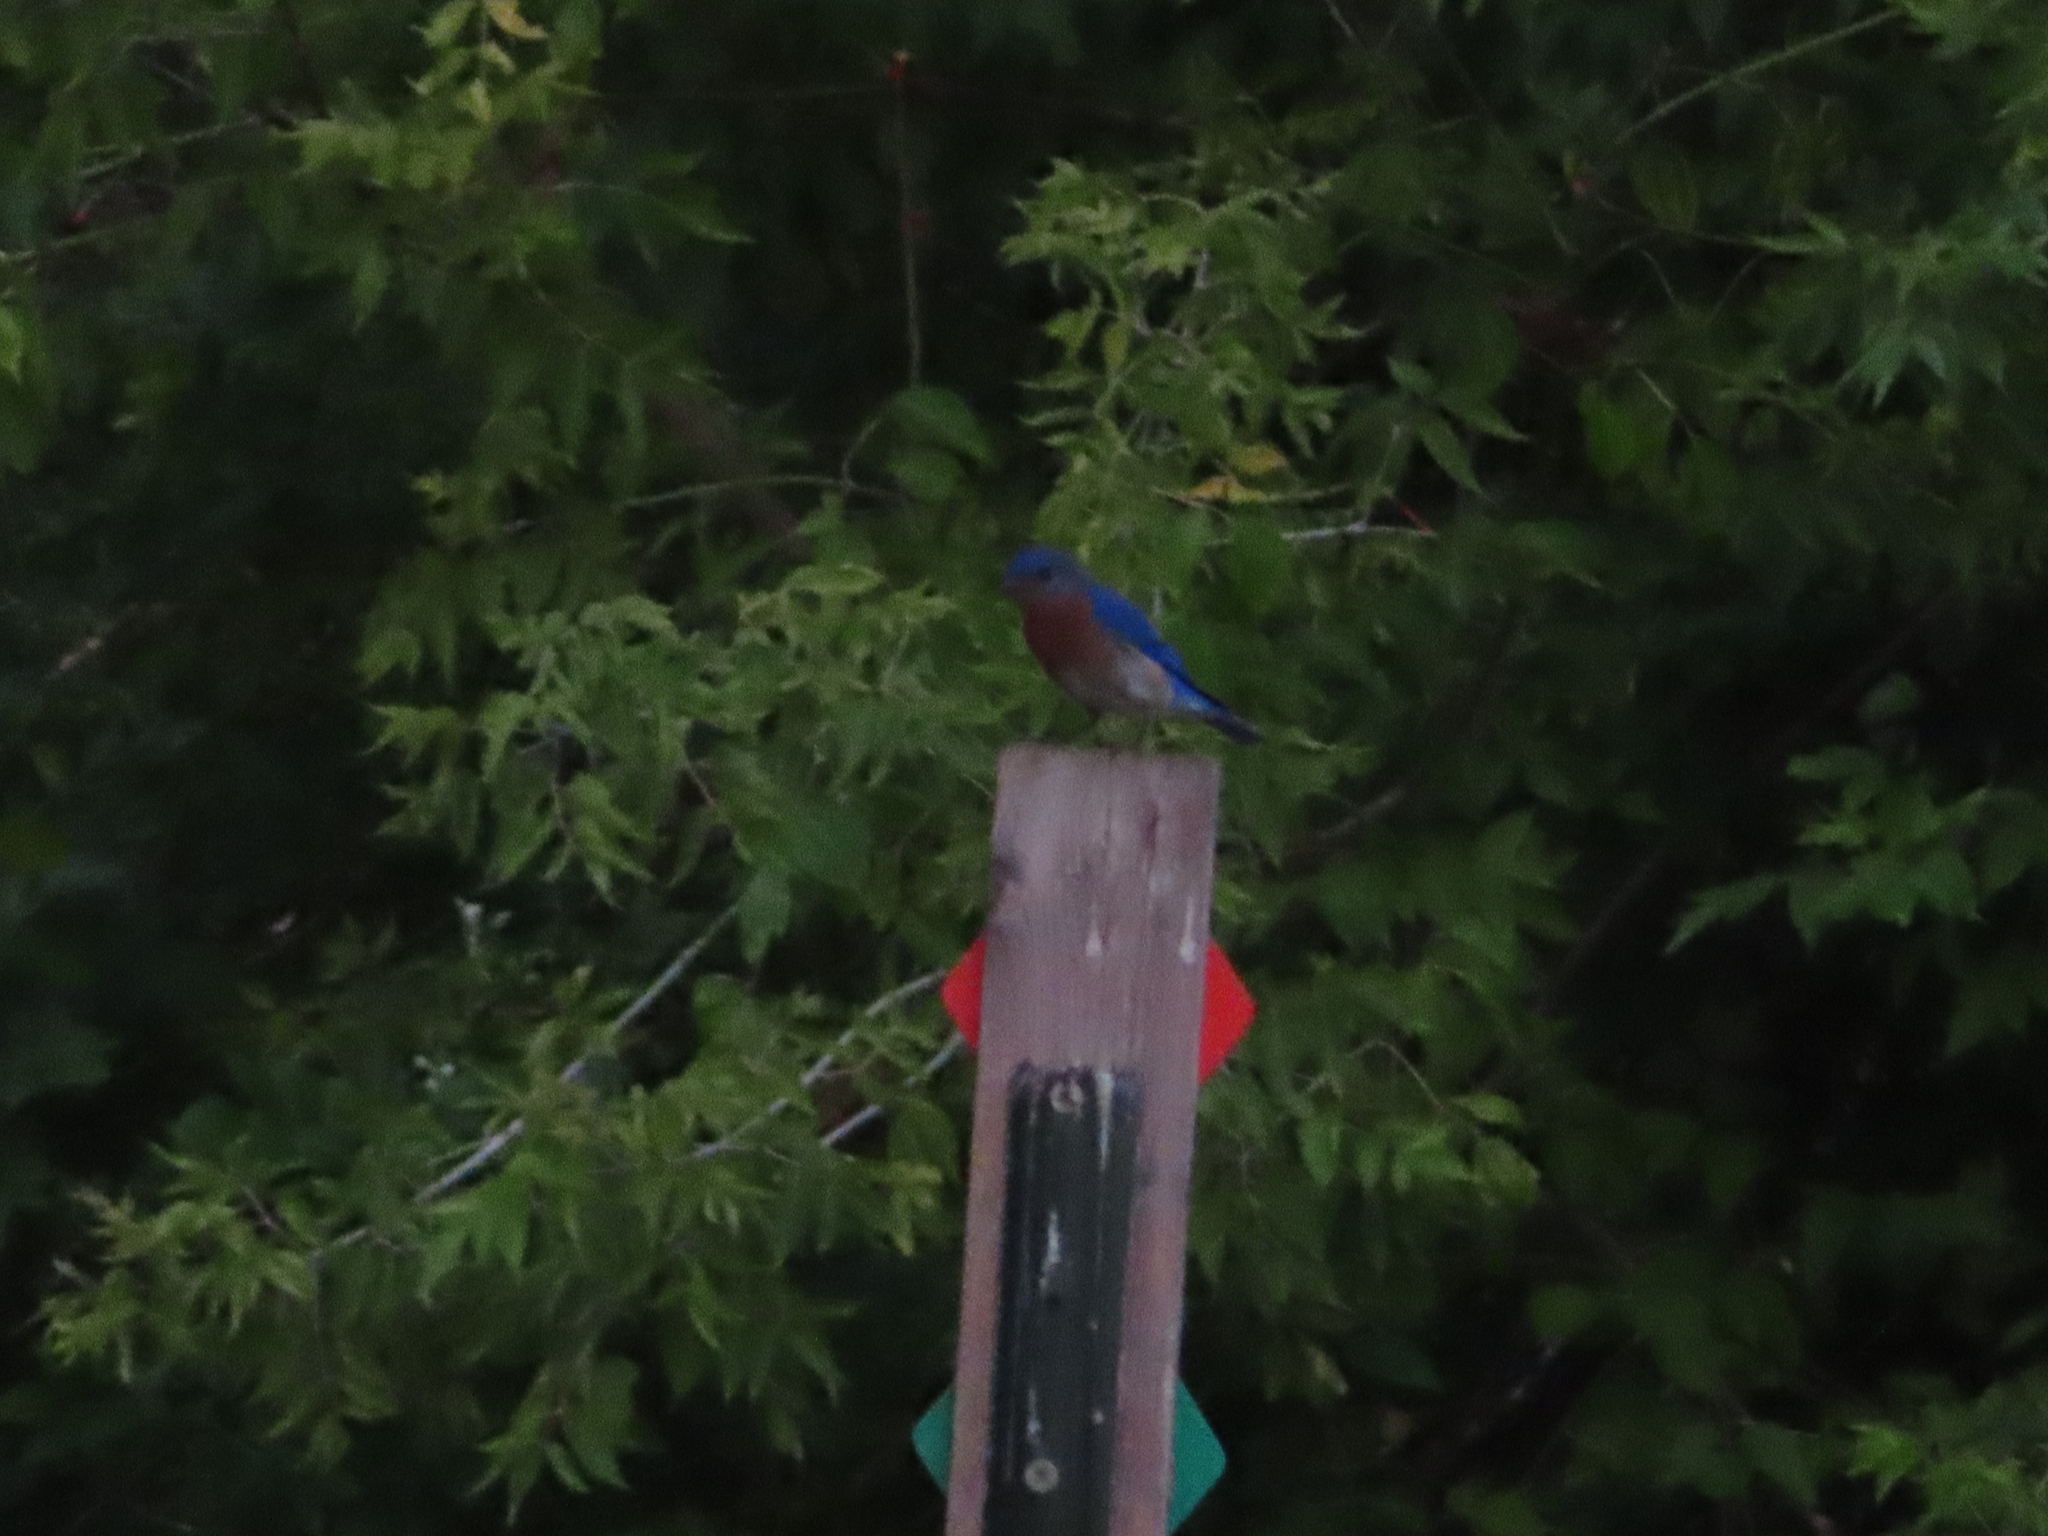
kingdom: Animalia
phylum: Chordata
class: Aves
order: Passeriformes
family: Turdidae
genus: Sialia
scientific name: Sialia sialis
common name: Eastern bluebird
